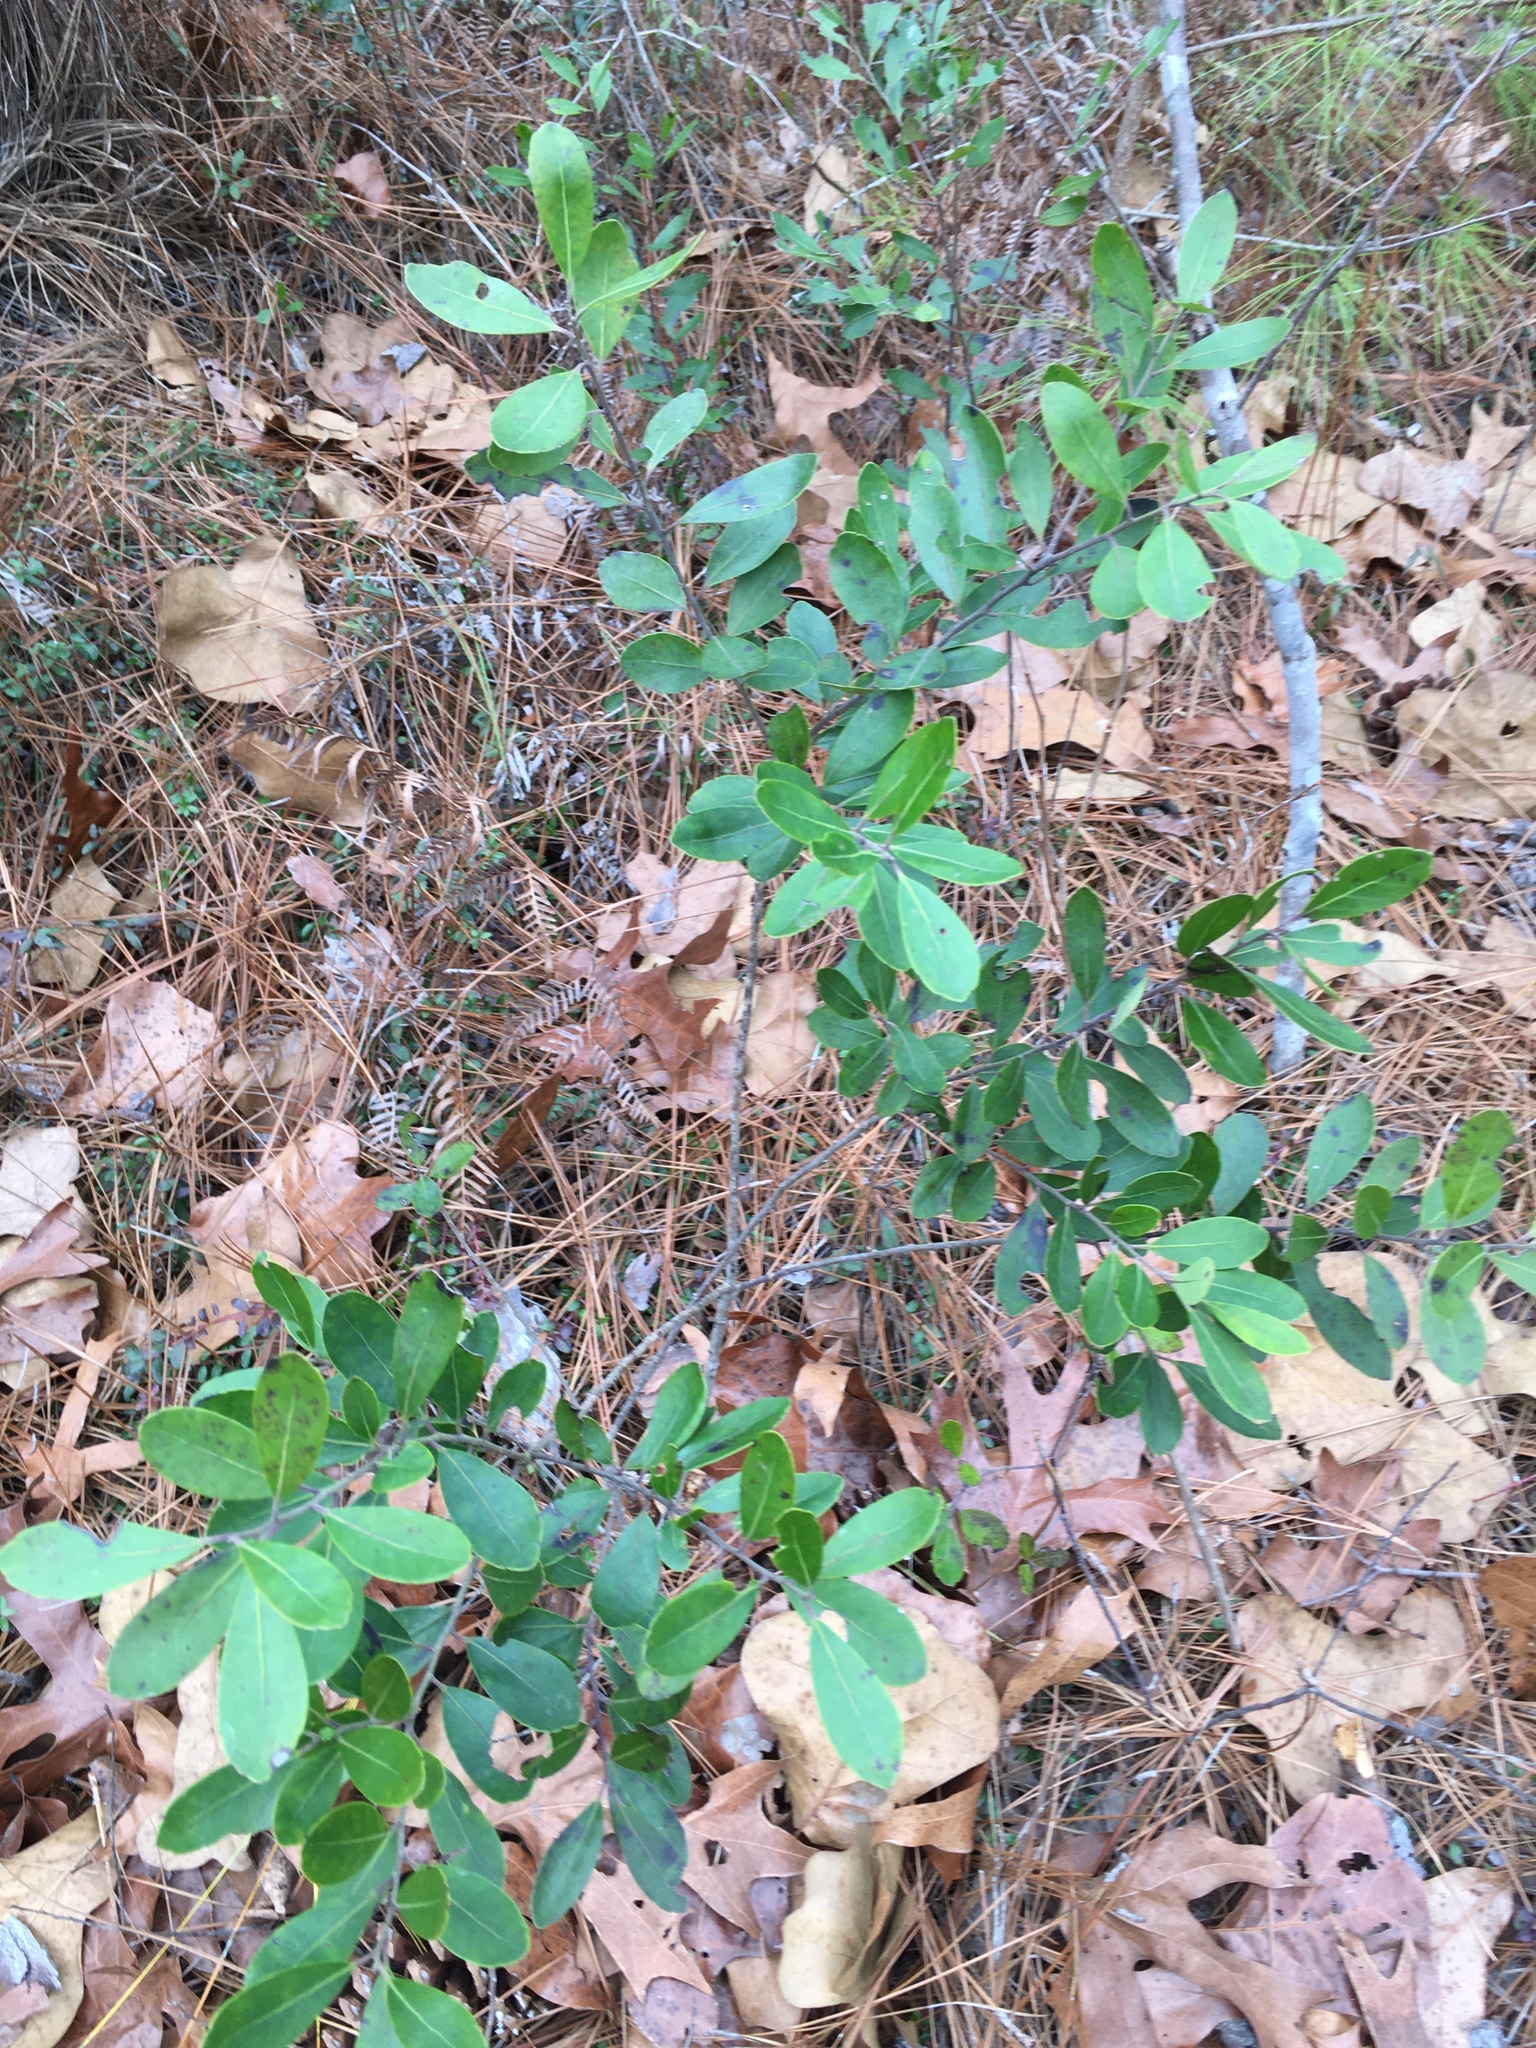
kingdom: Plantae
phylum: Tracheophyta
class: Magnoliopsida
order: Aquifoliales
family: Aquifoliaceae
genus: Ilex
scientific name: Ilex glabra
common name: Bitter gallberry
